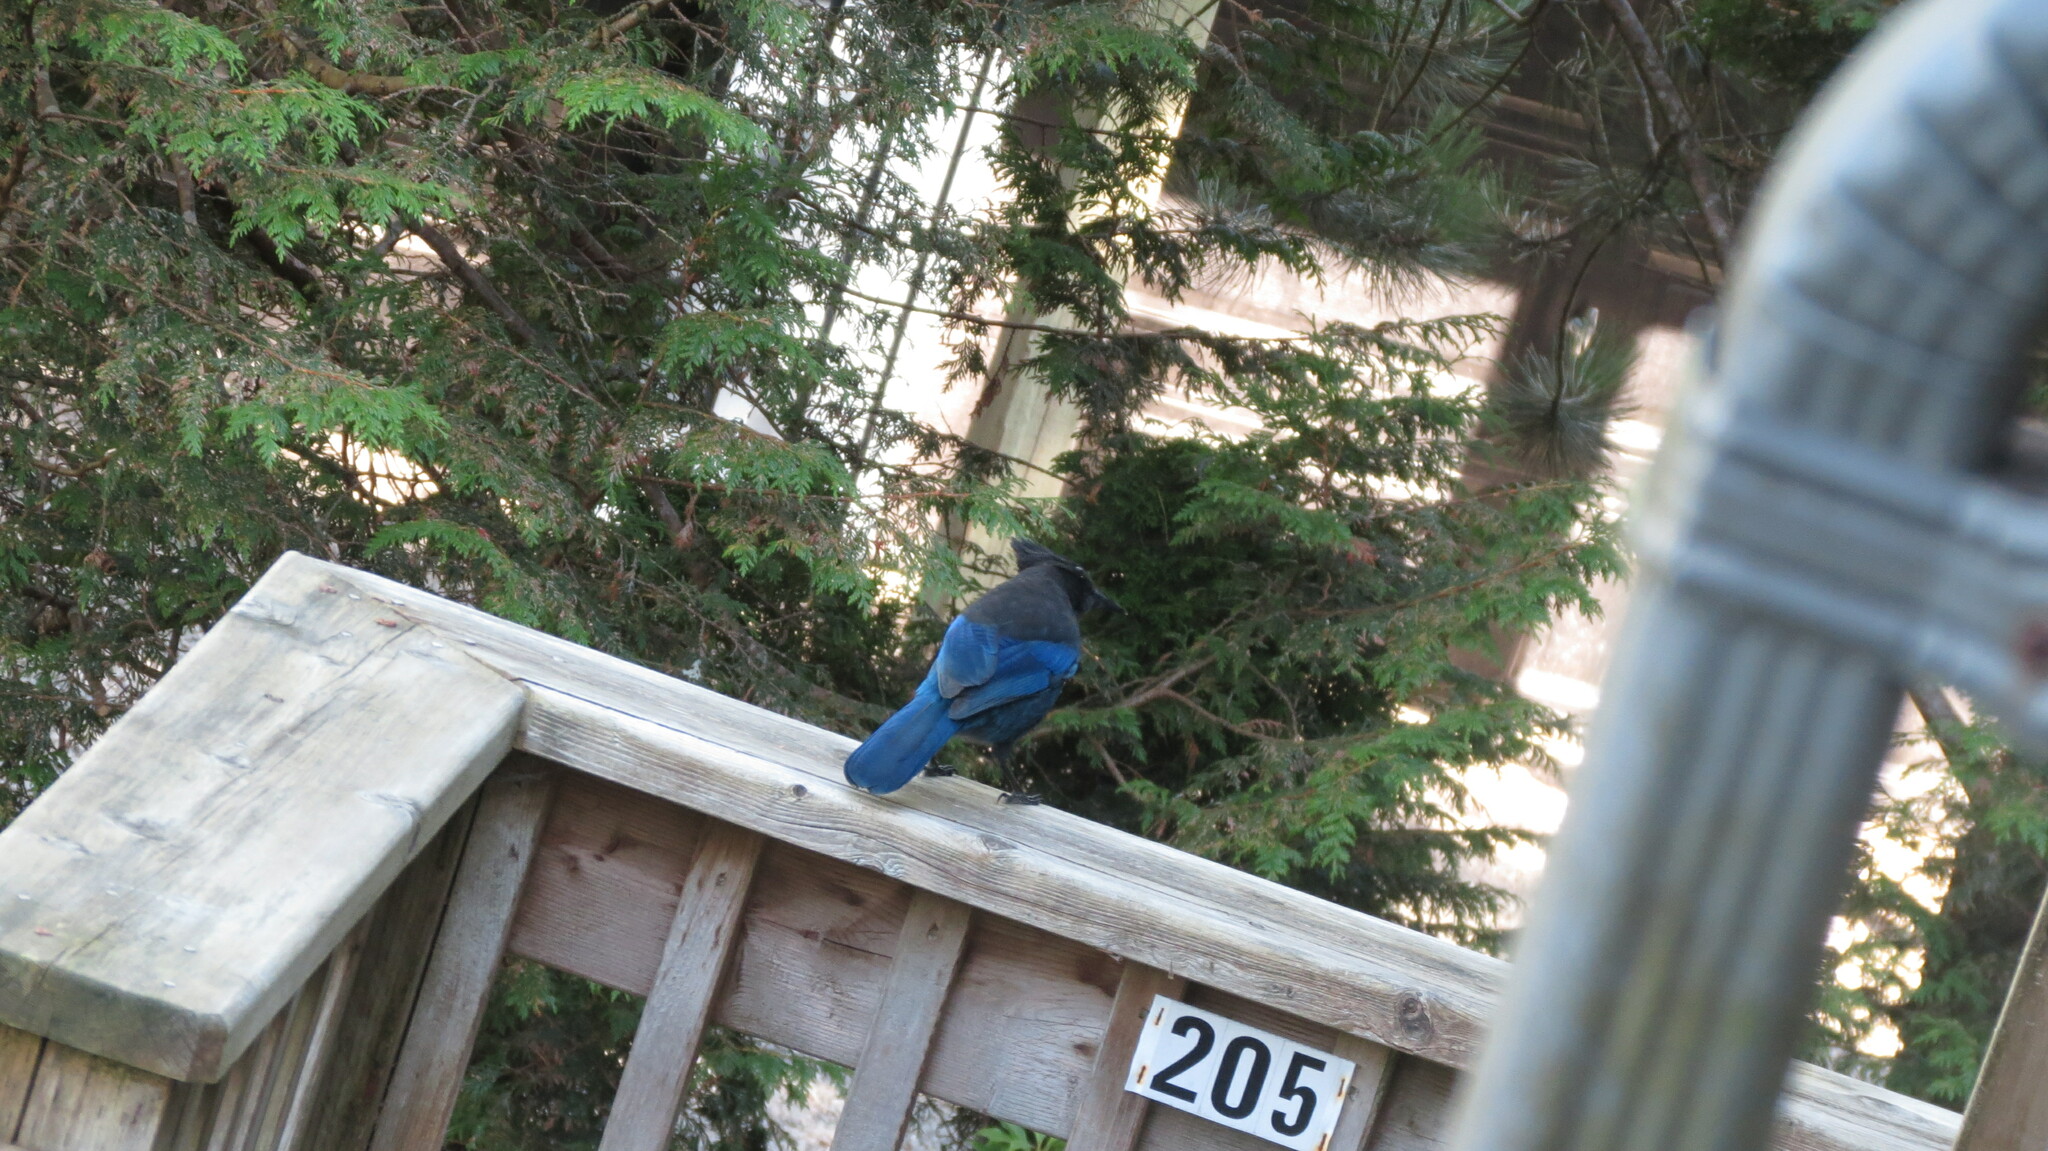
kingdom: Animalia
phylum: Chordata
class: Aves
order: Passeriformes
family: Corvidae
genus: Cyanocitta
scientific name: Cyanocitta stelleri
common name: Steller's jay
